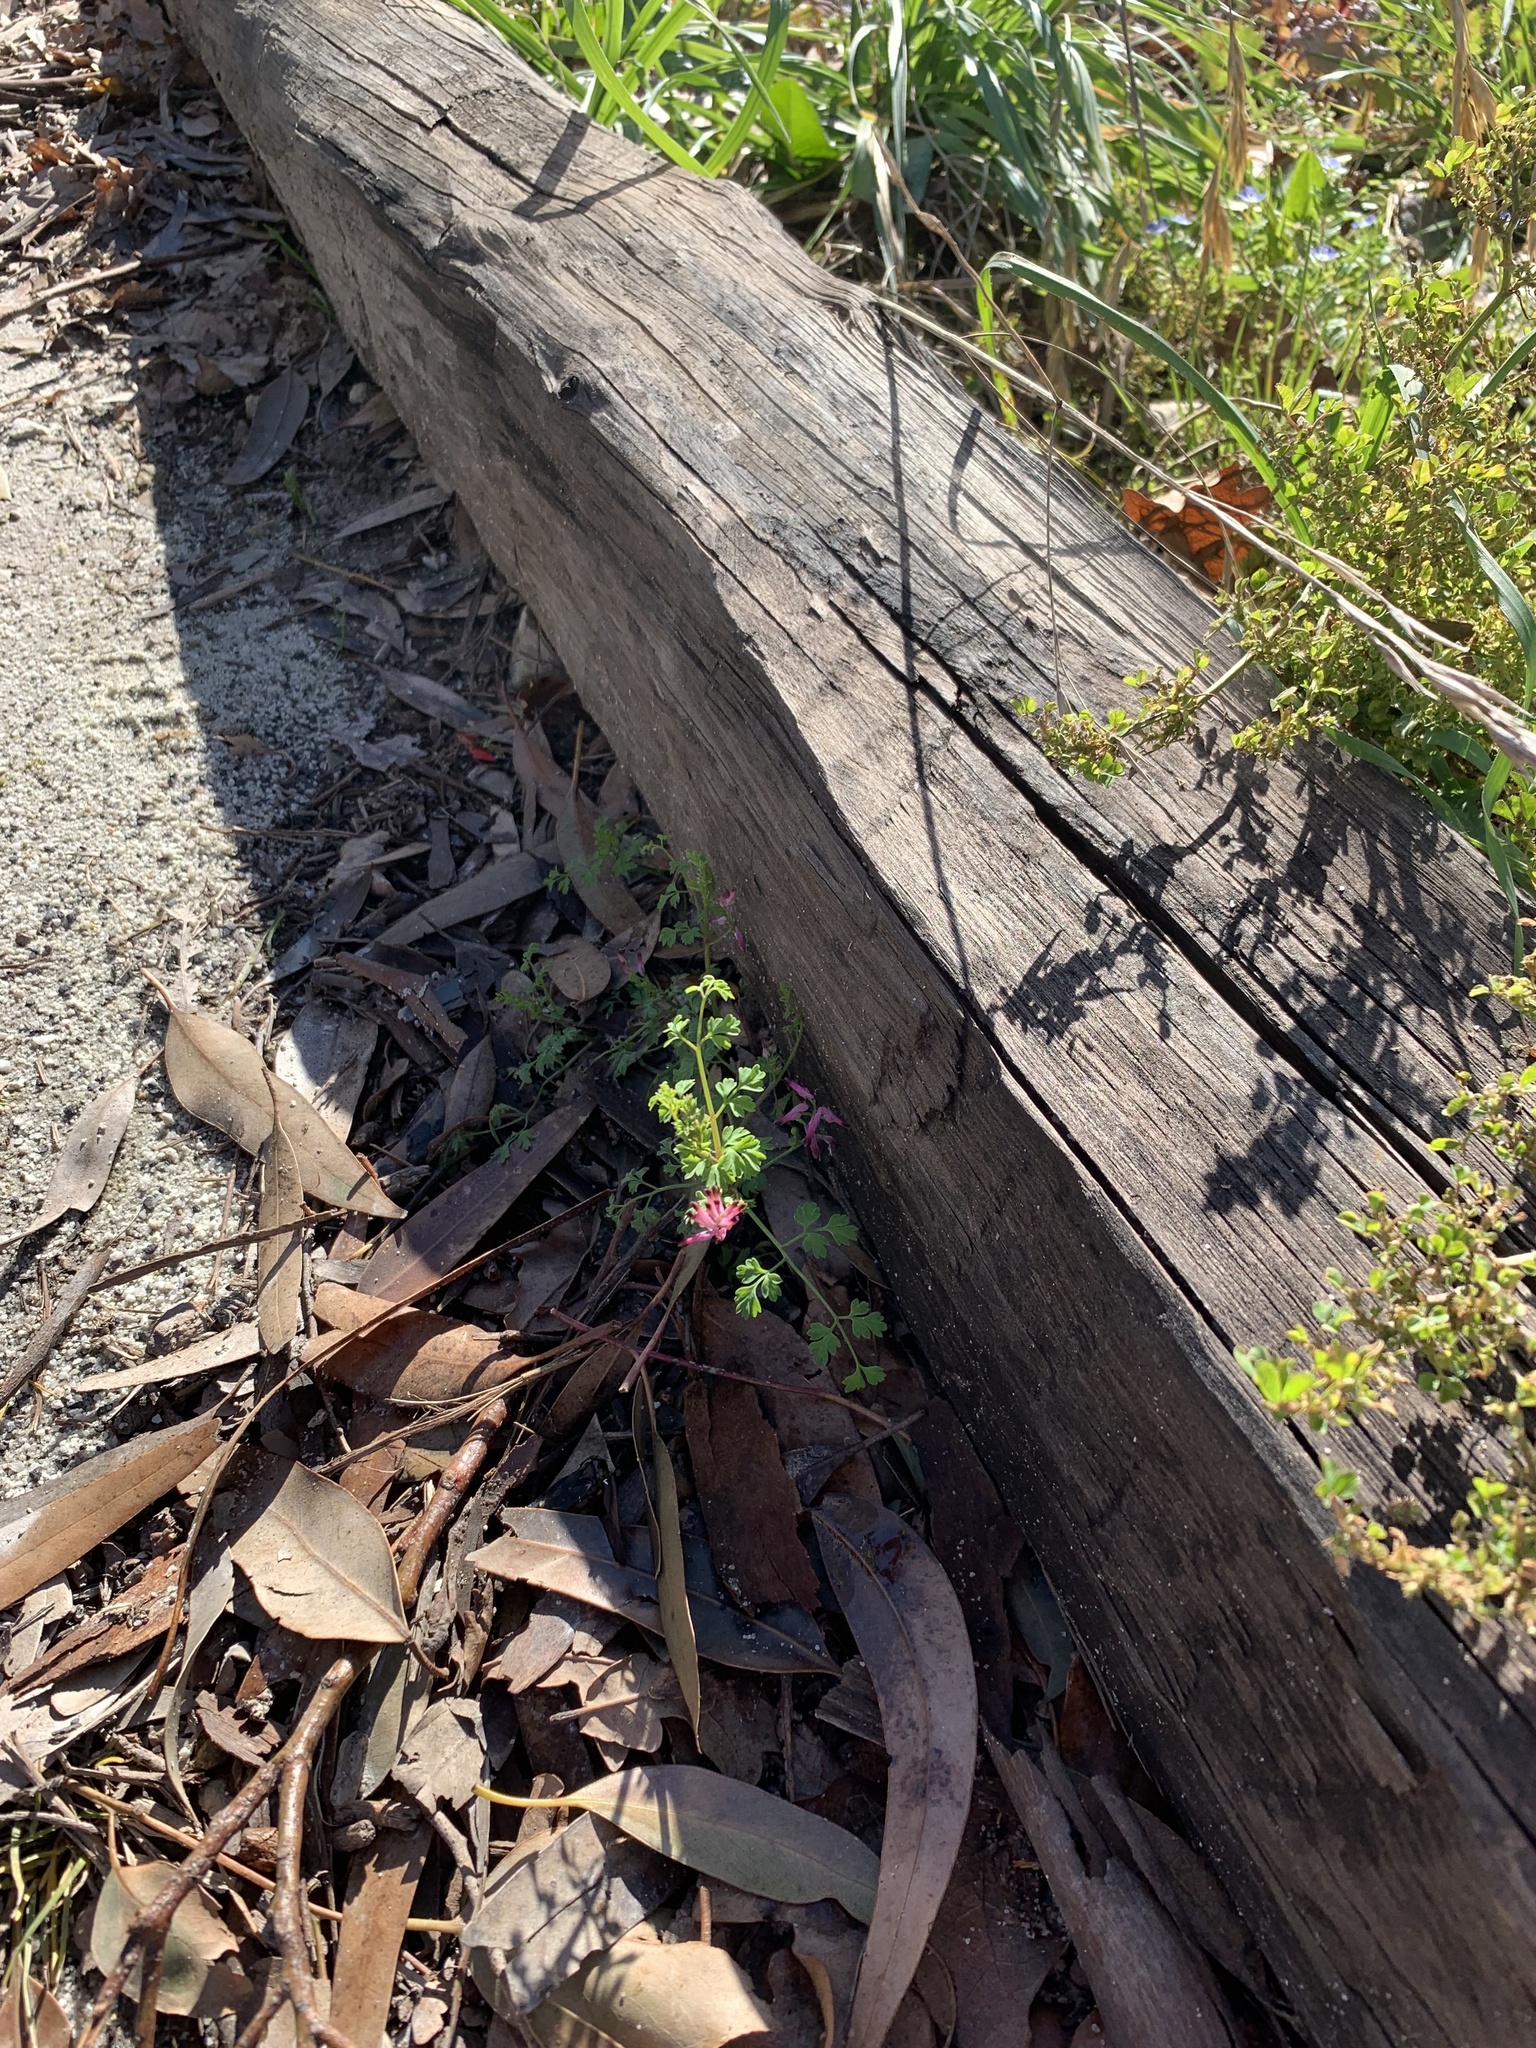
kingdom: Plantae
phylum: Tracheophyta
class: Magnoliopsida
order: Ranunculales
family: Papaveraceae
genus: Fumaria
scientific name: Fumaria muralis
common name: Common ramping-fumitory
